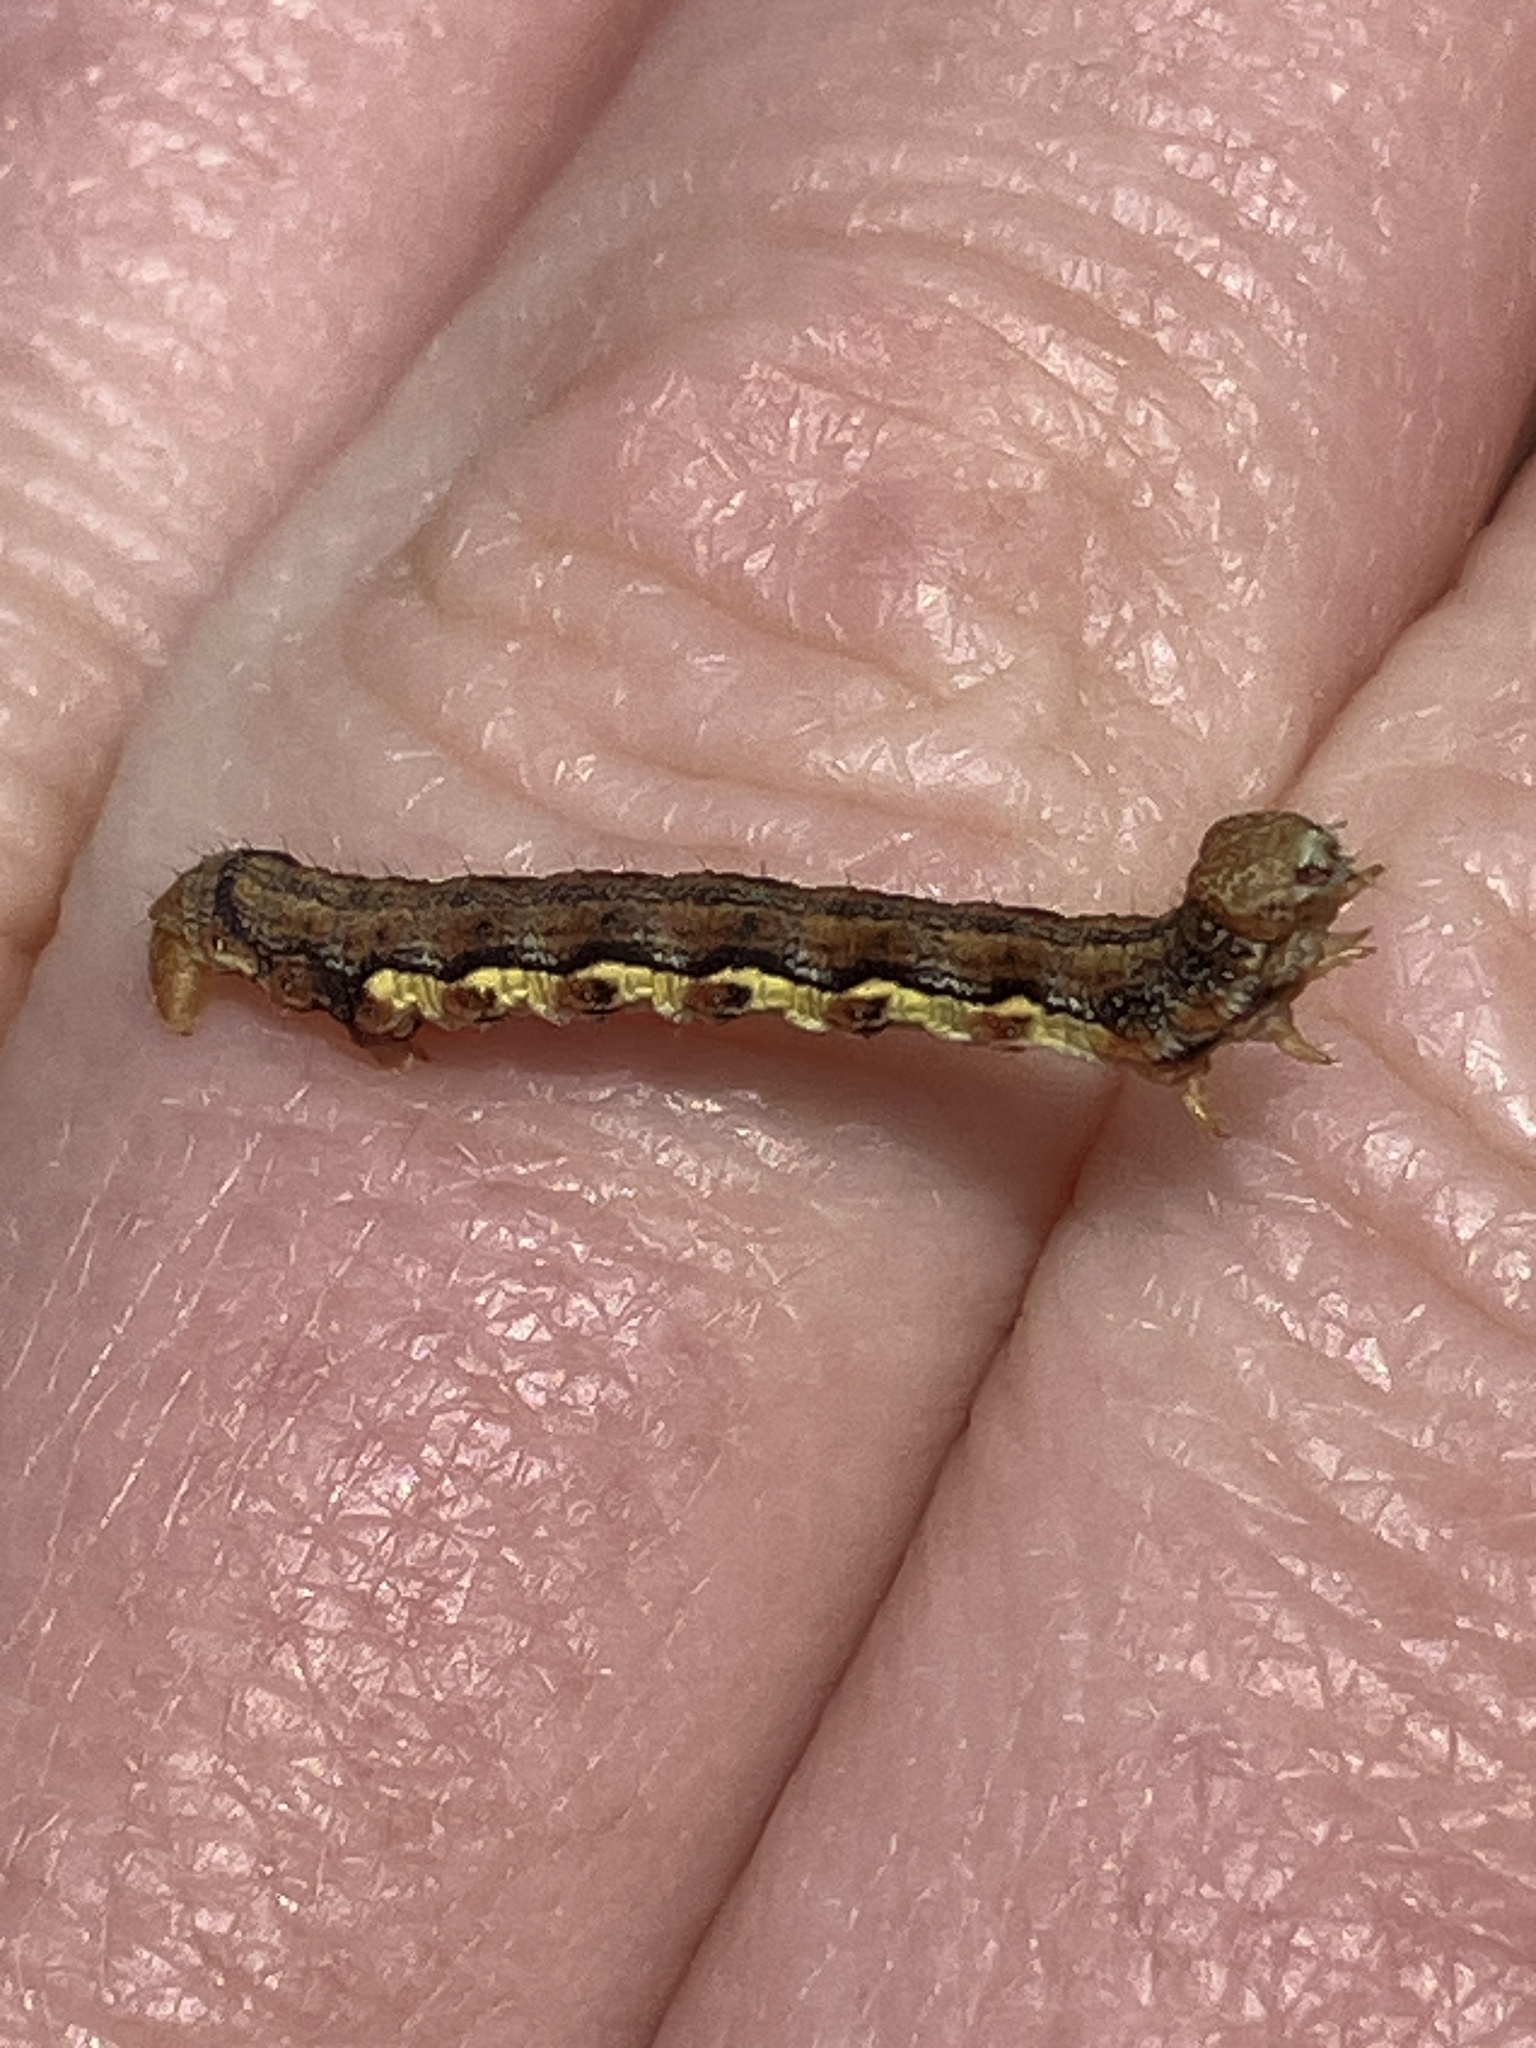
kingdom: Animalia
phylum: Arthropoda
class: Insecta
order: Lepidoptera
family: Geometridae
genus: Erannis
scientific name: Erannis defoliaria
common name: Mottled umber
